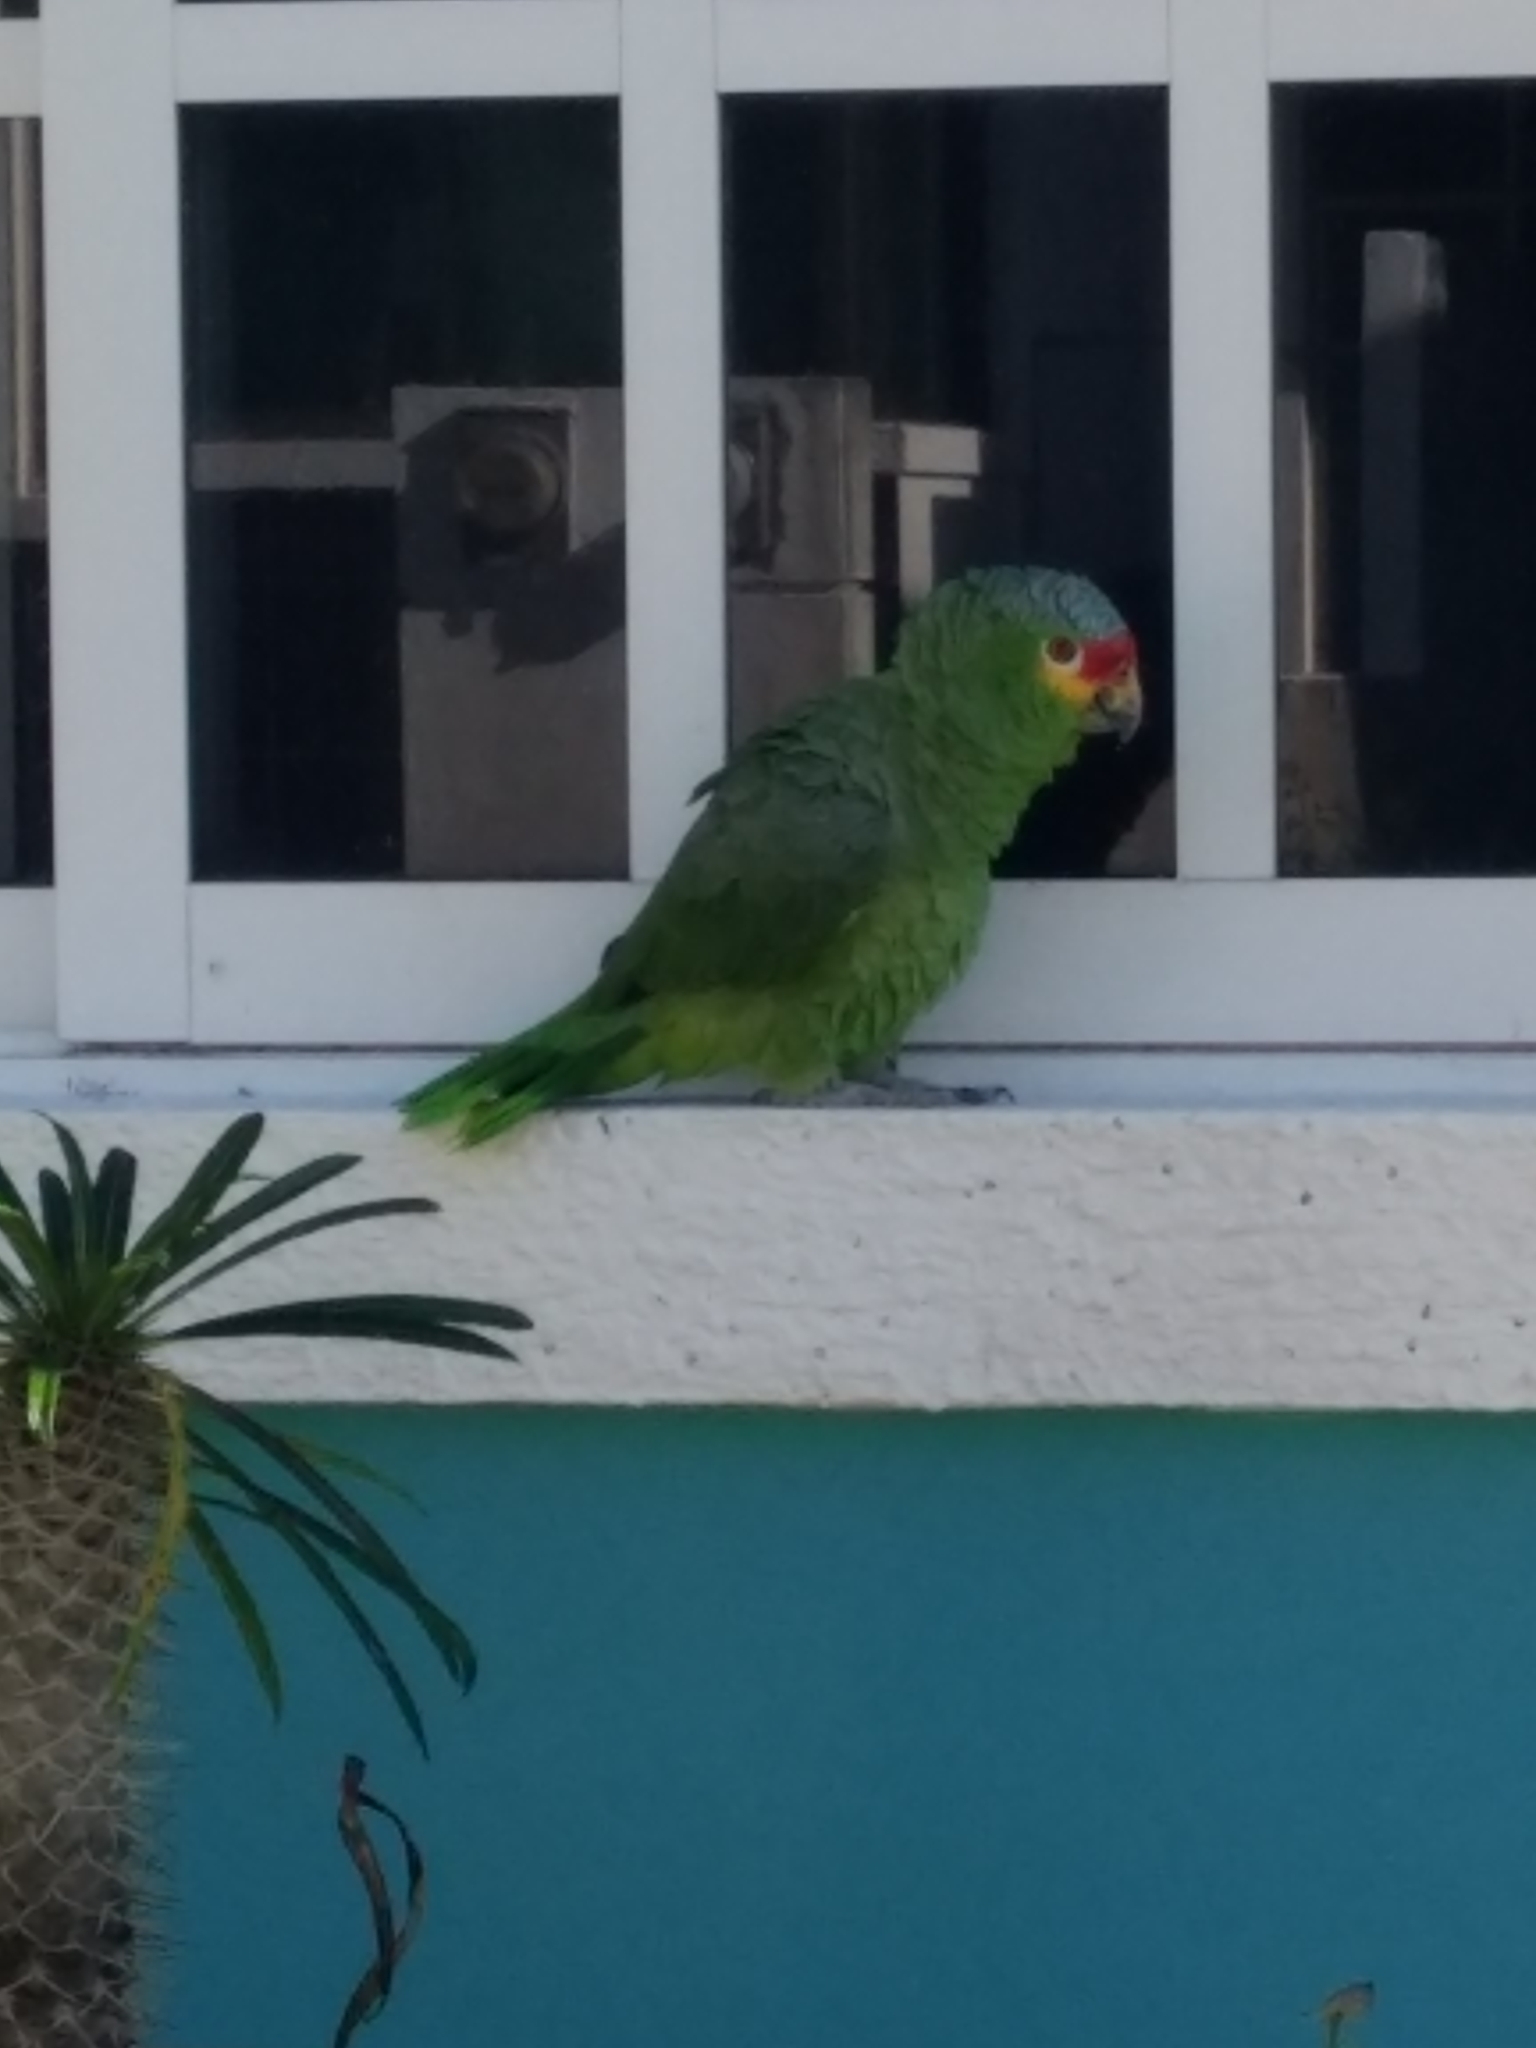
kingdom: Animalia
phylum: Chordata
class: Aves
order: Psittaciformes
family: Psittacidae
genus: Amazona
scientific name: Amazona autumnalis
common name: Red-lored amazon
